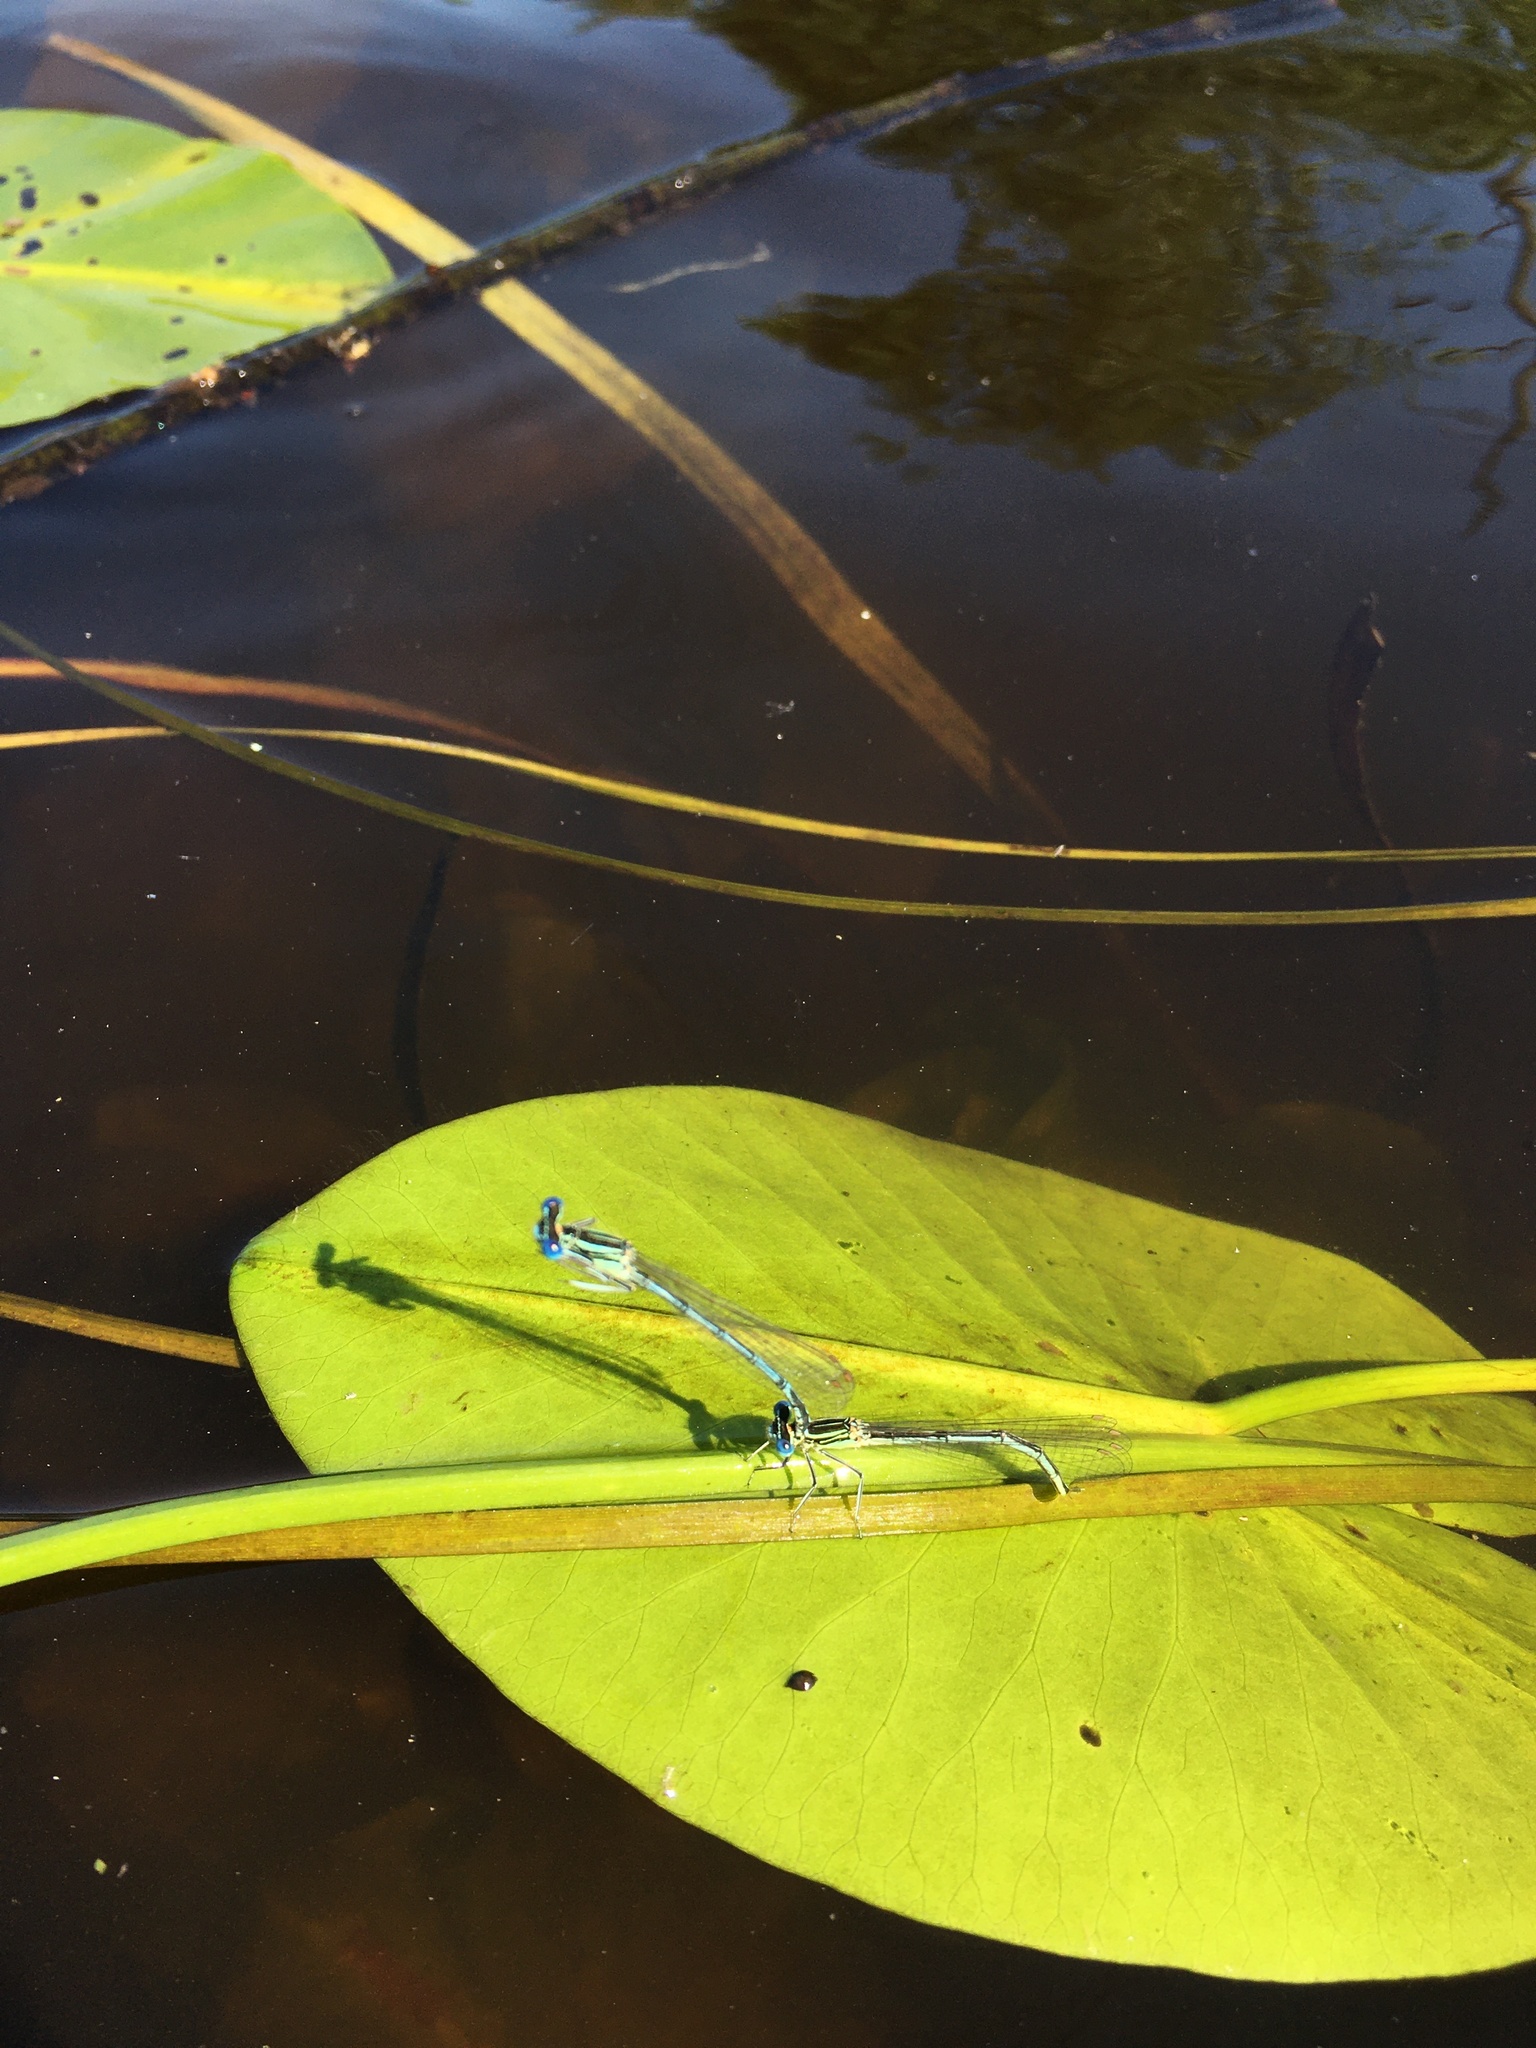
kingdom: Animalia
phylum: Arthropoda
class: Insecta
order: Odonata
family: Platycnemididae
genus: Platycnemis
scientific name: Platycnemis pennipes
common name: White-legged damselfly
